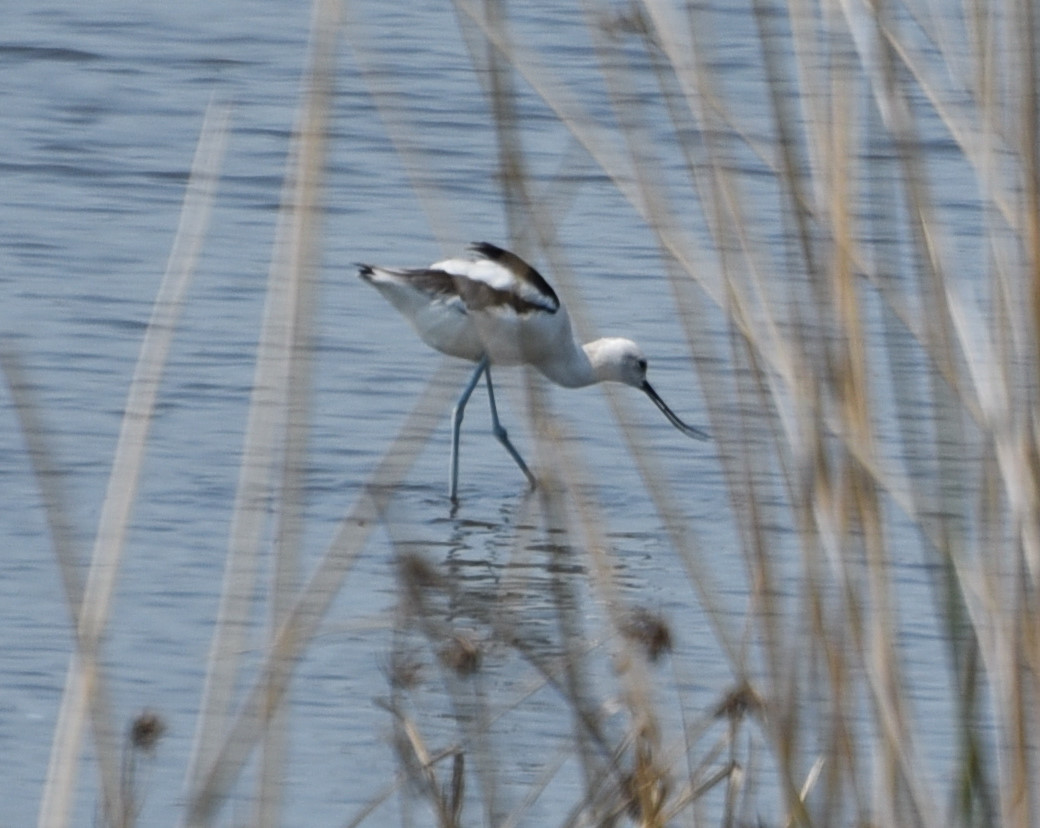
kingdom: Animalia
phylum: Chordata
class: Aves
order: Charadriiformes
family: Recurvirostridae
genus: Recurvirostra
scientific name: Recurvirostra americana
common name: American avocet
